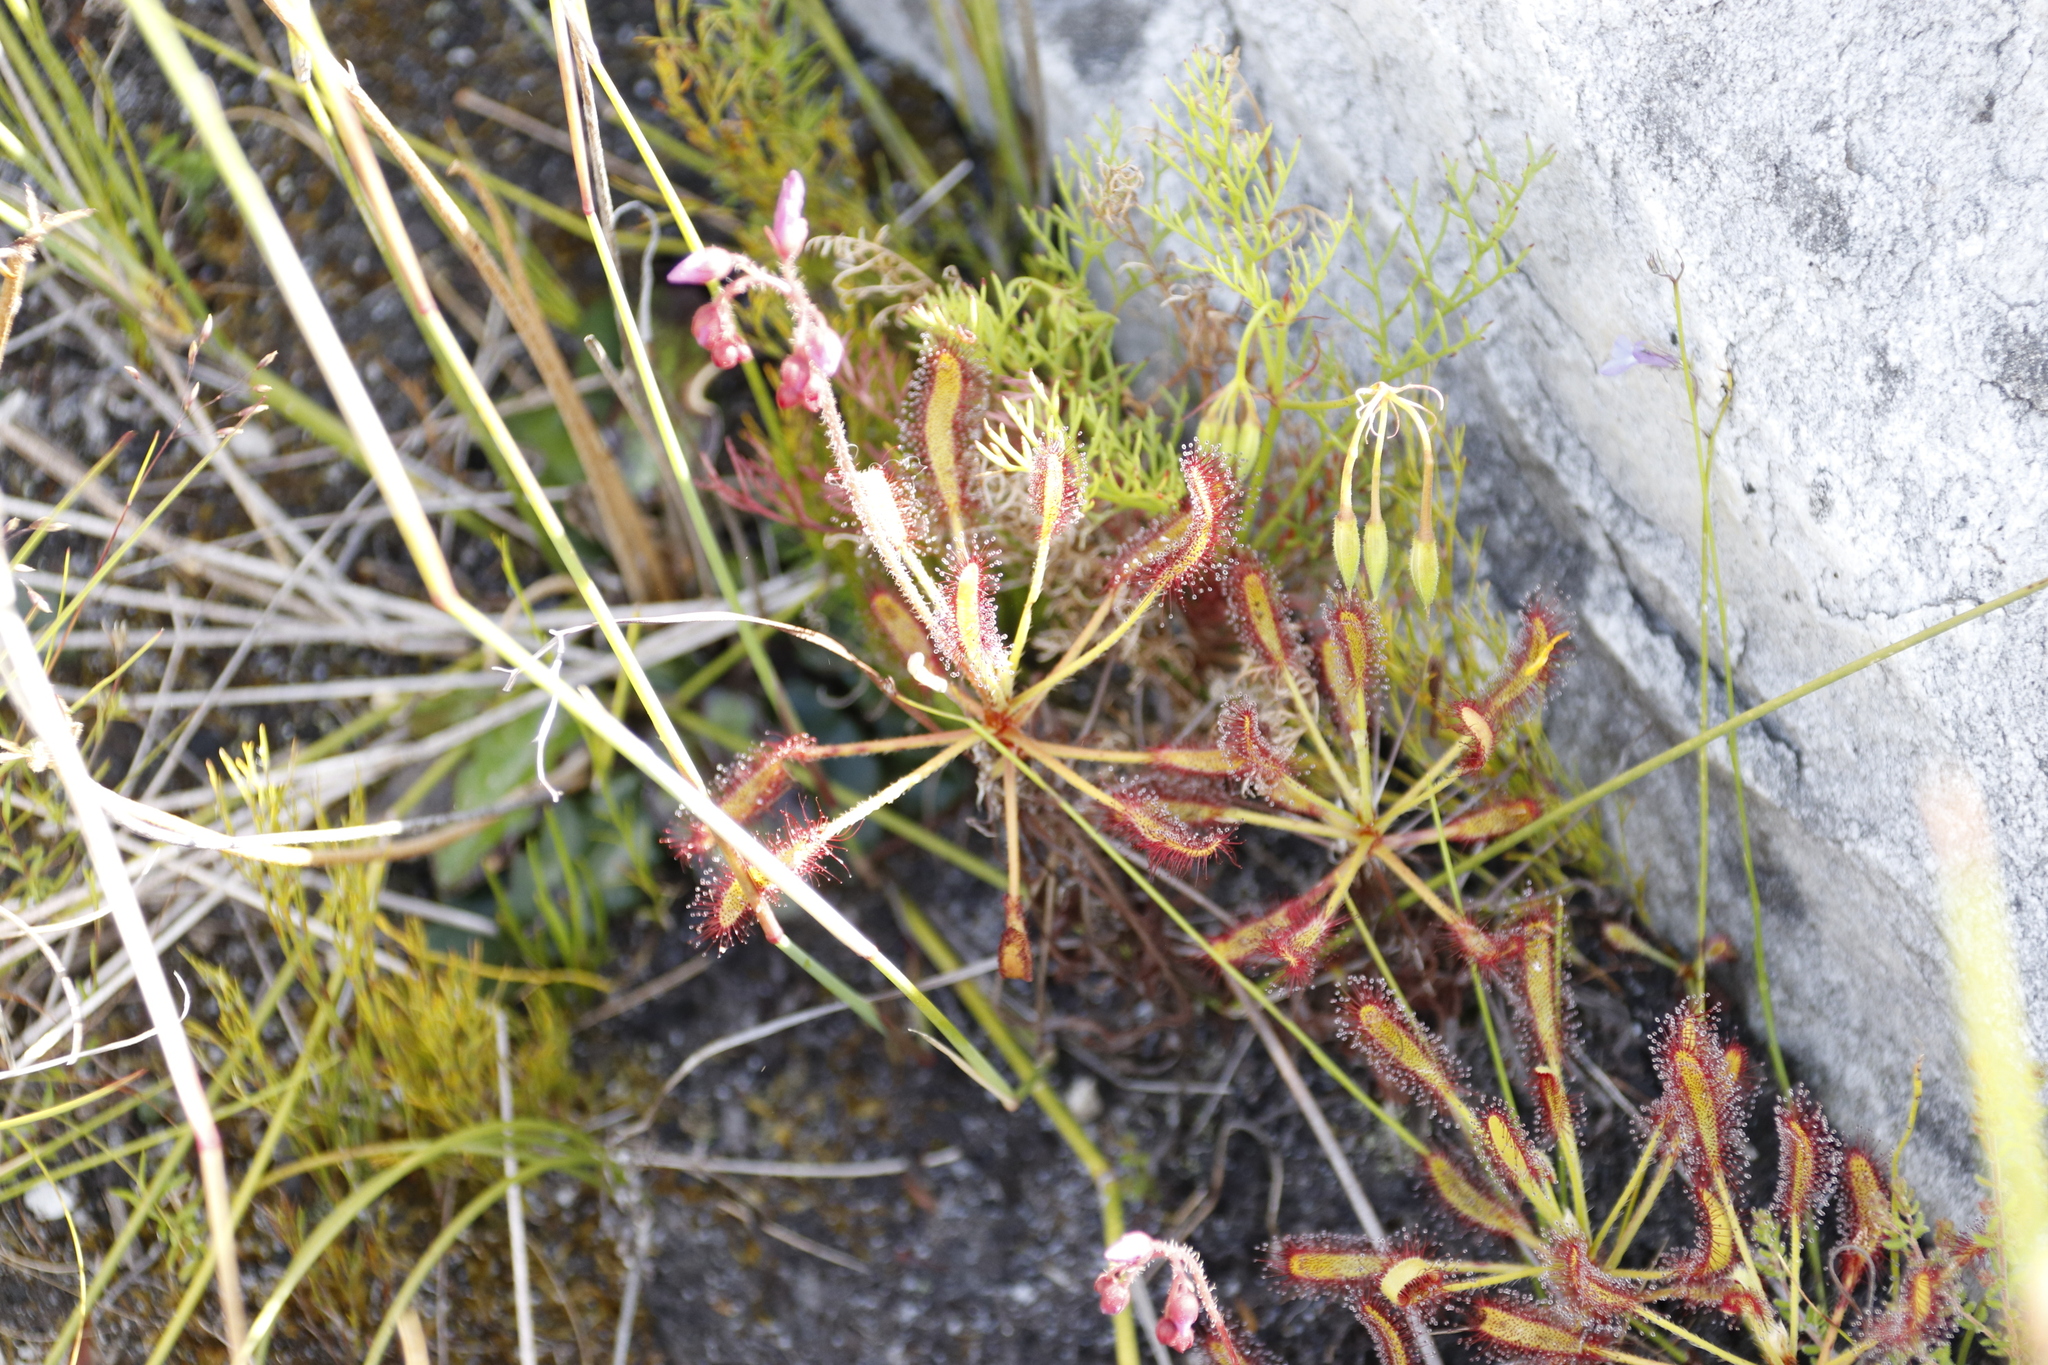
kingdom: Plantae
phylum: Tracheophyta
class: Magnoliopsida
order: Caryophyllales
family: Droseraceae
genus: Drosera
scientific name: Drosera ramentacea
